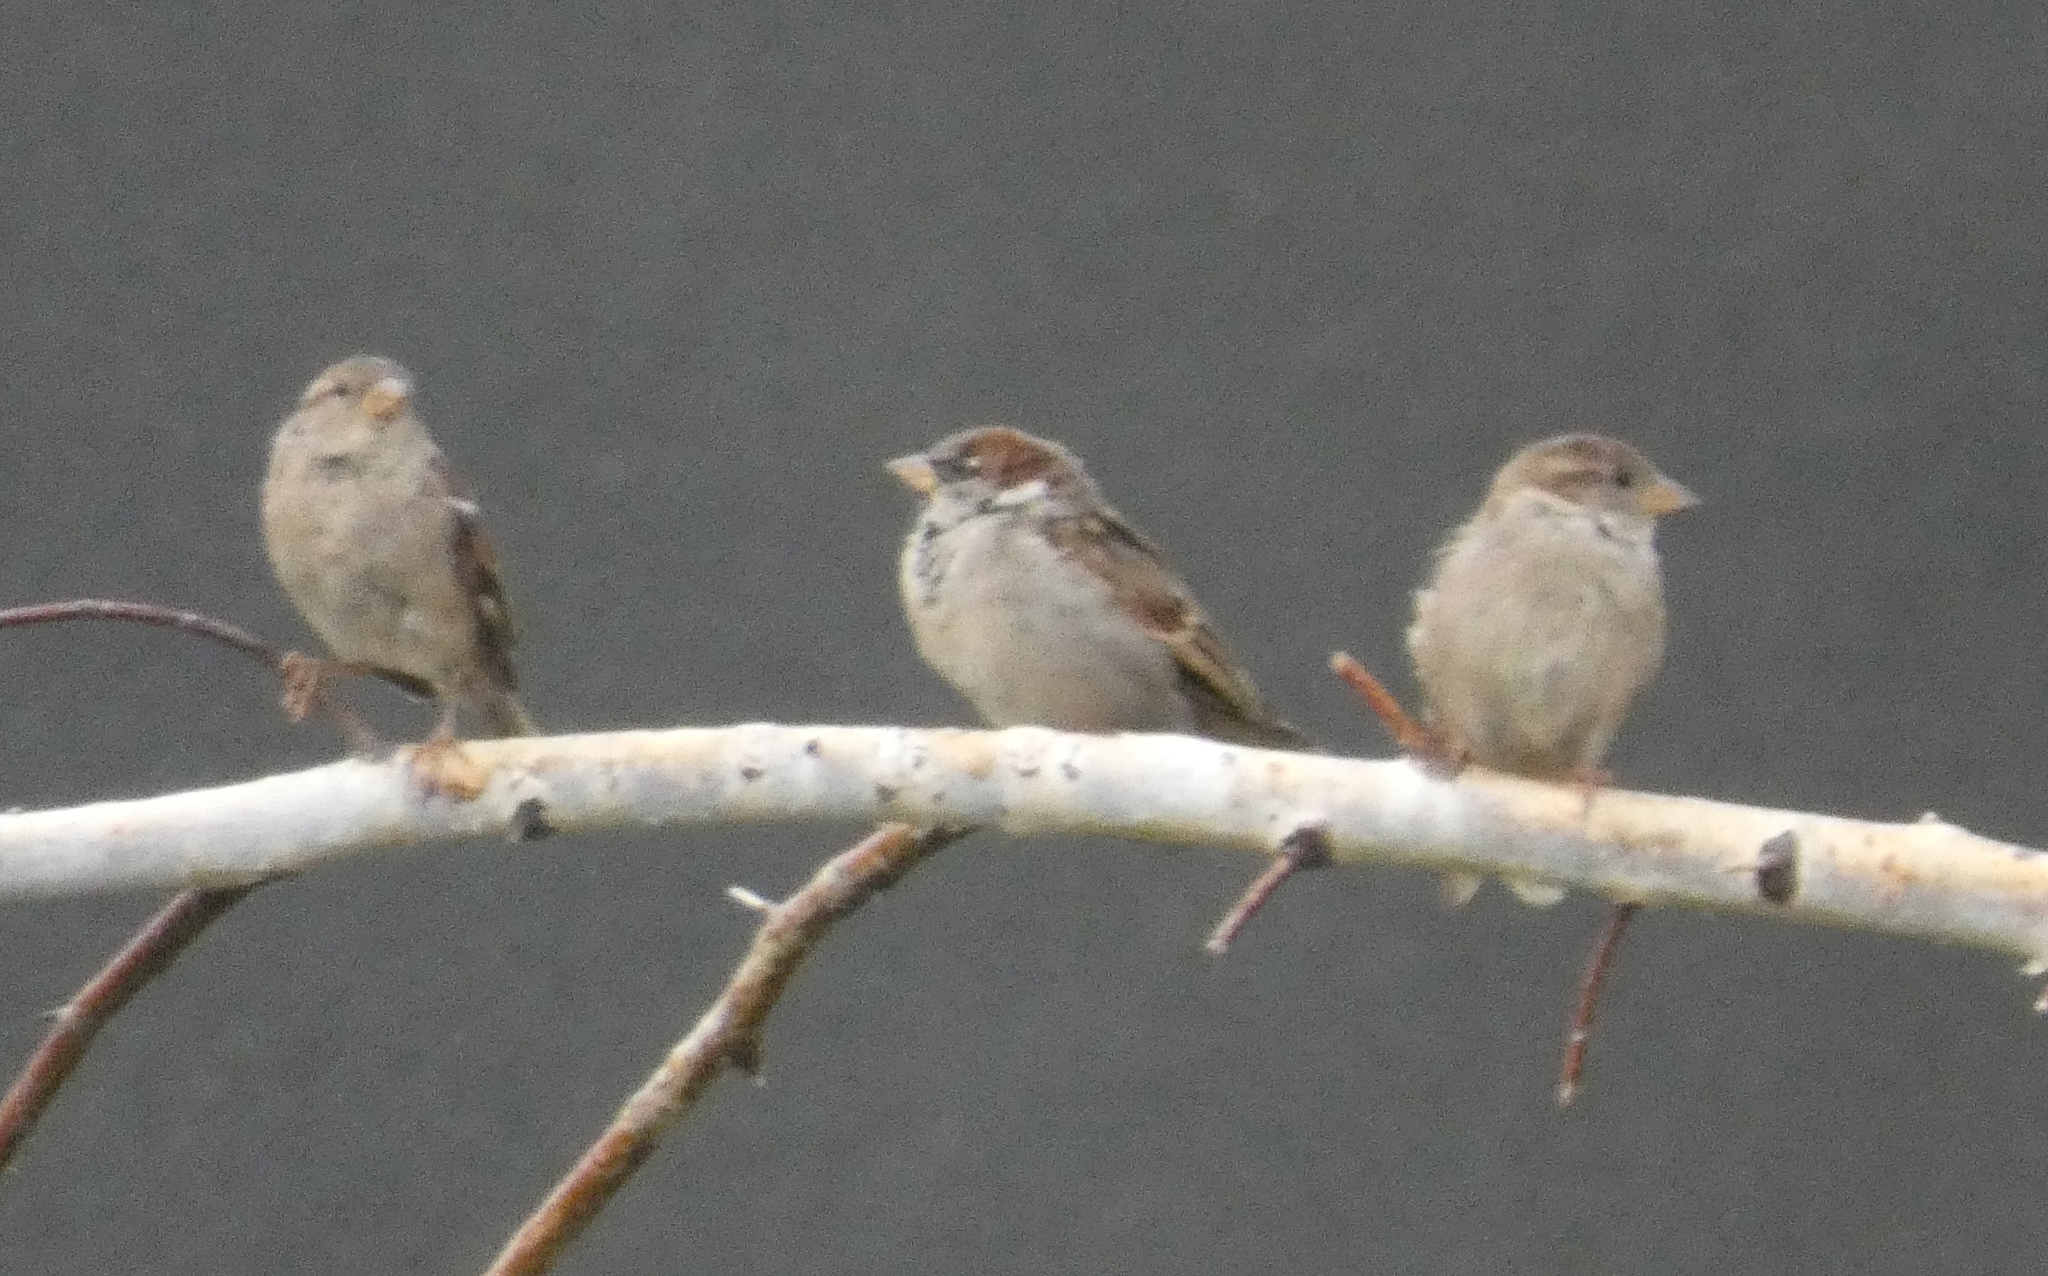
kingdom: Animalia
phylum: Chordata
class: Aves
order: Passeriformes
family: Passeridae
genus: Passer
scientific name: Passer domesticus
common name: House sparrow
